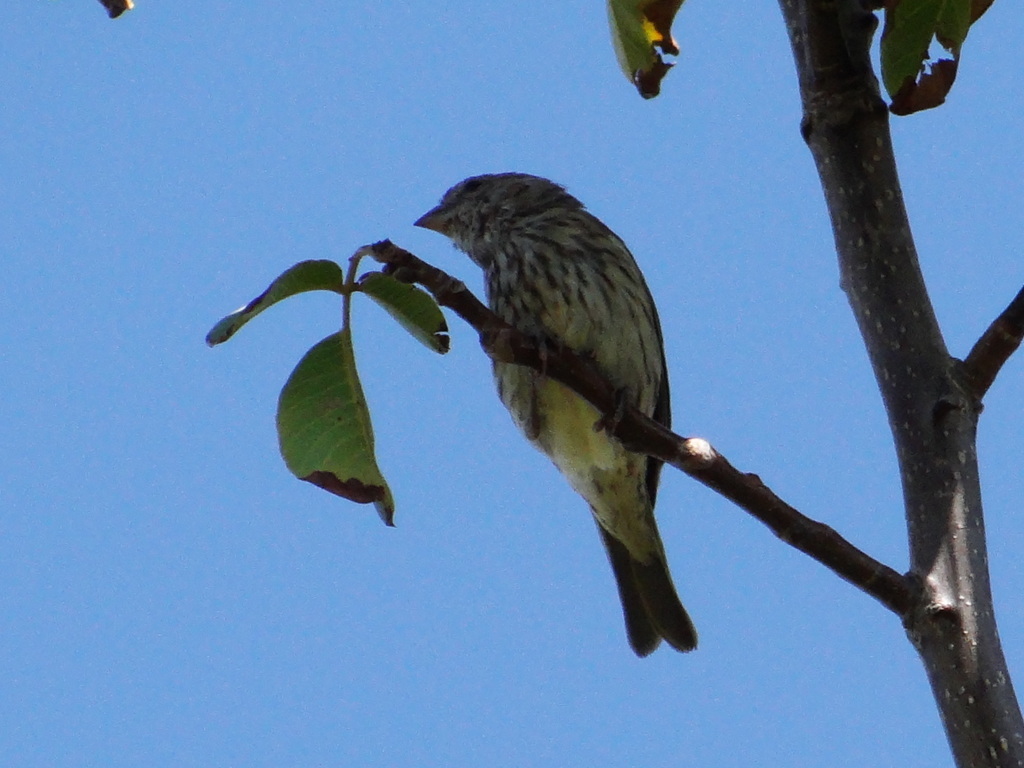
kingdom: Animalia
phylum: Chordata
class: Aves
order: Passeriformes
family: Thraupidae
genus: Sicalis
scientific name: Sicalis flaveola
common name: Saffron finch
